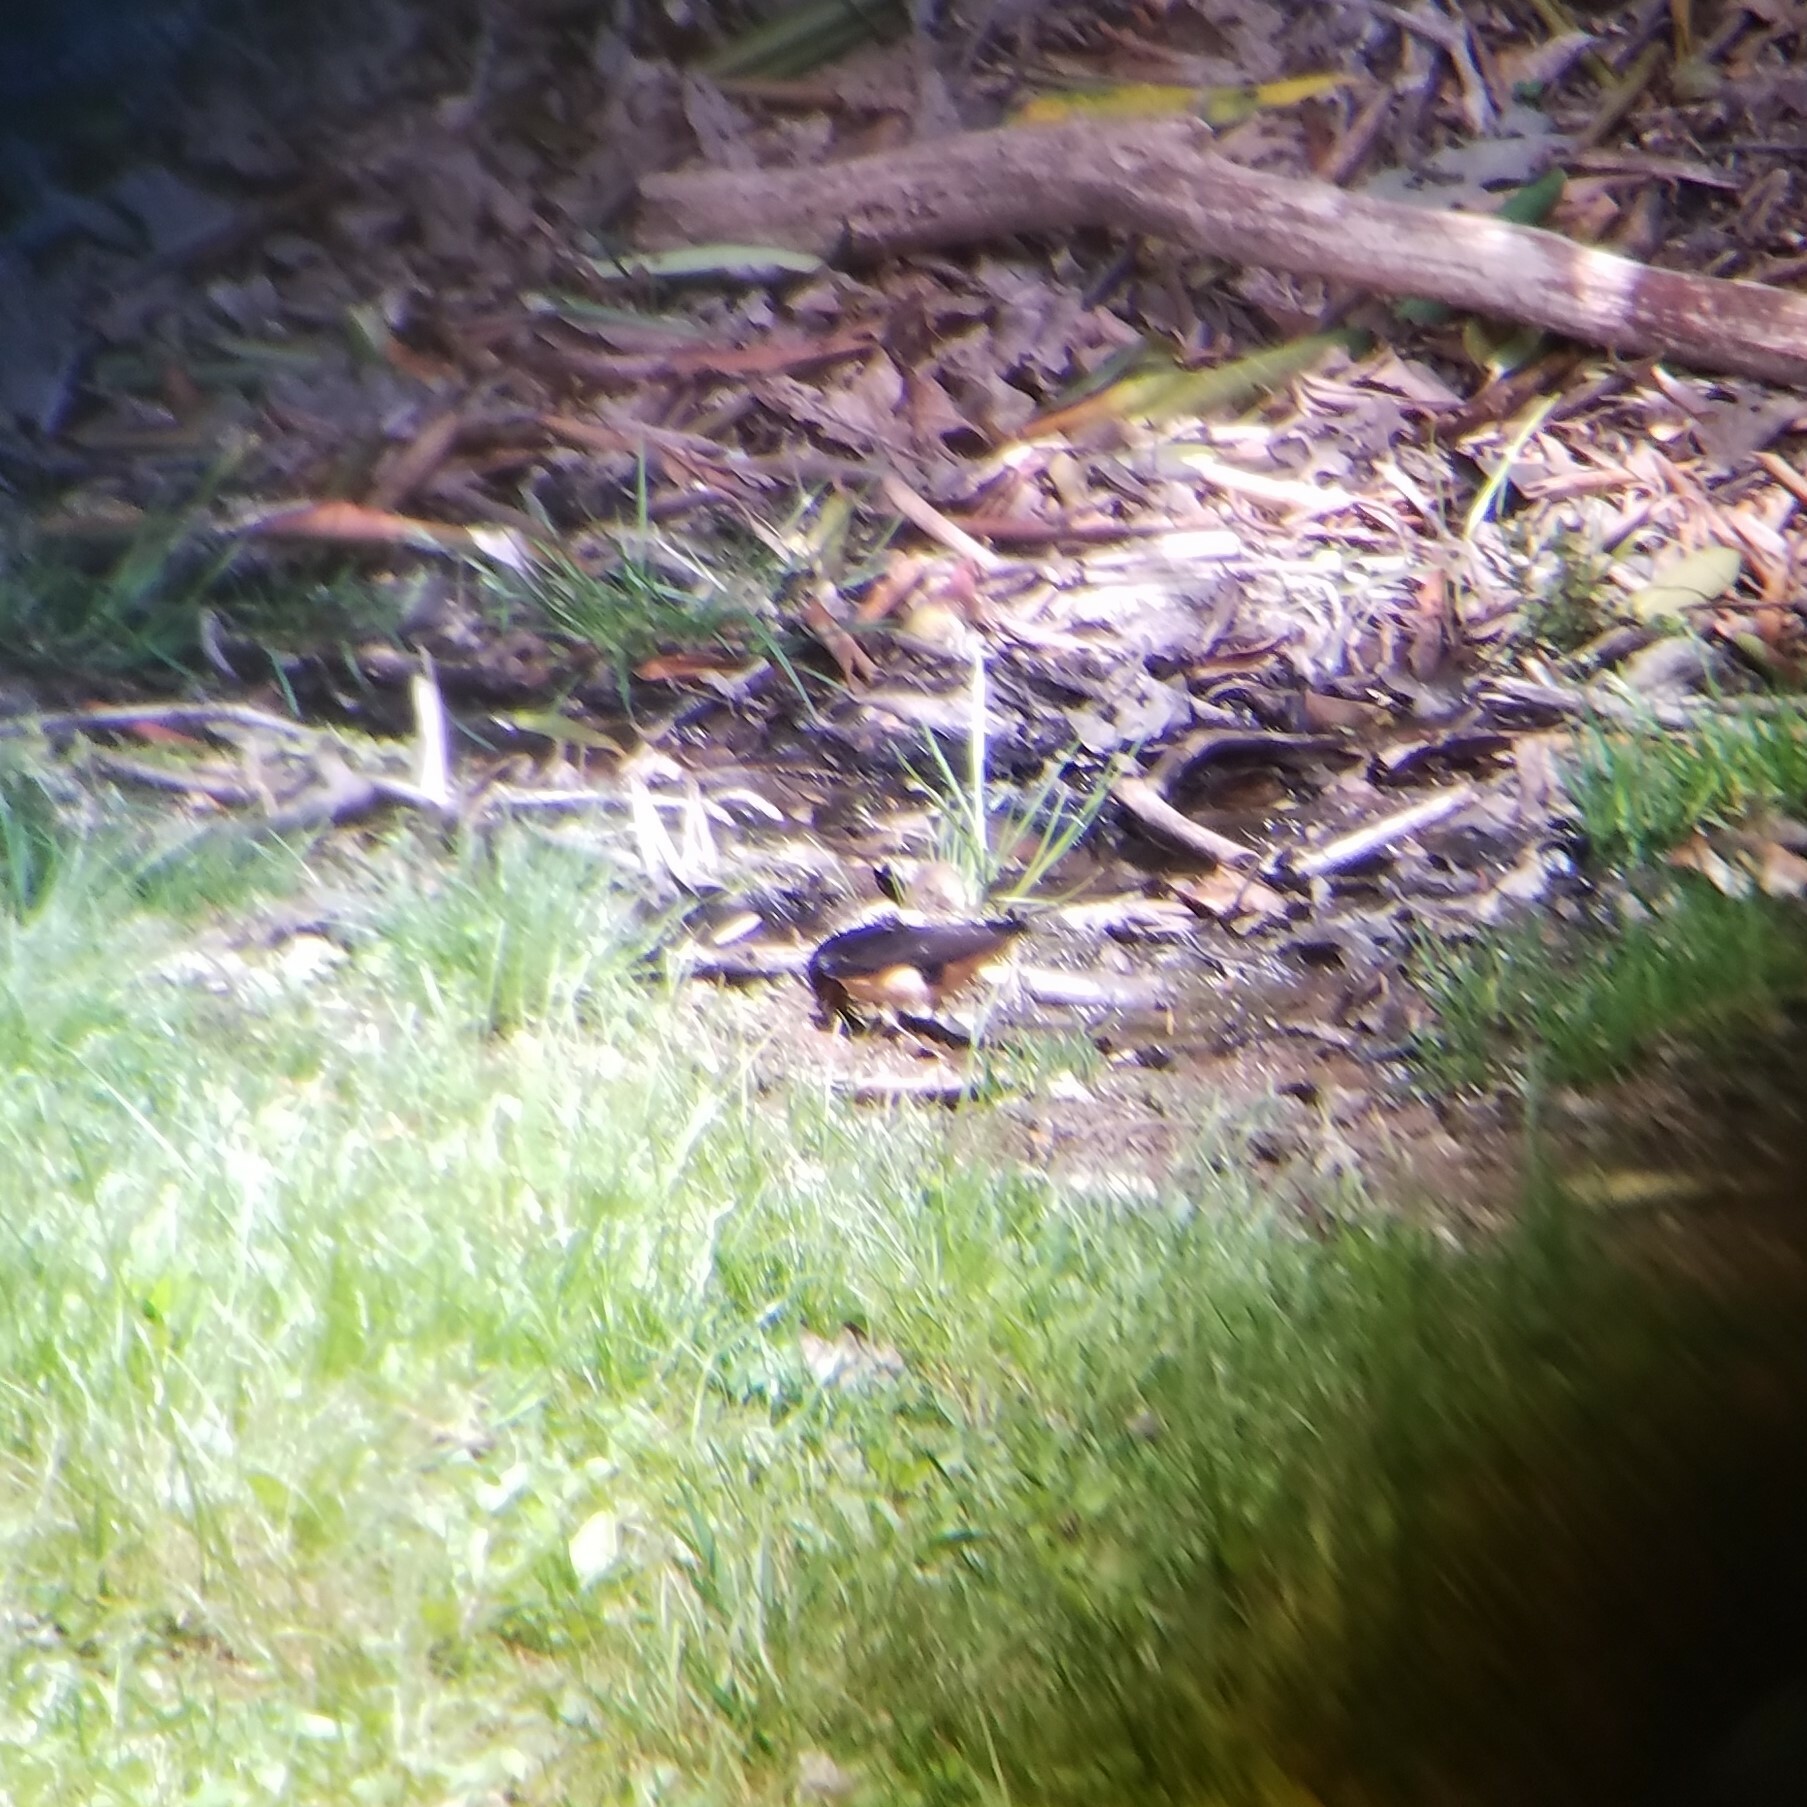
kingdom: Animalia
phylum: Chordata
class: Aves
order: Passeriformes
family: Hirundinidae
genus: Hirundo
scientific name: Hirundo rustica
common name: Barn swallow
